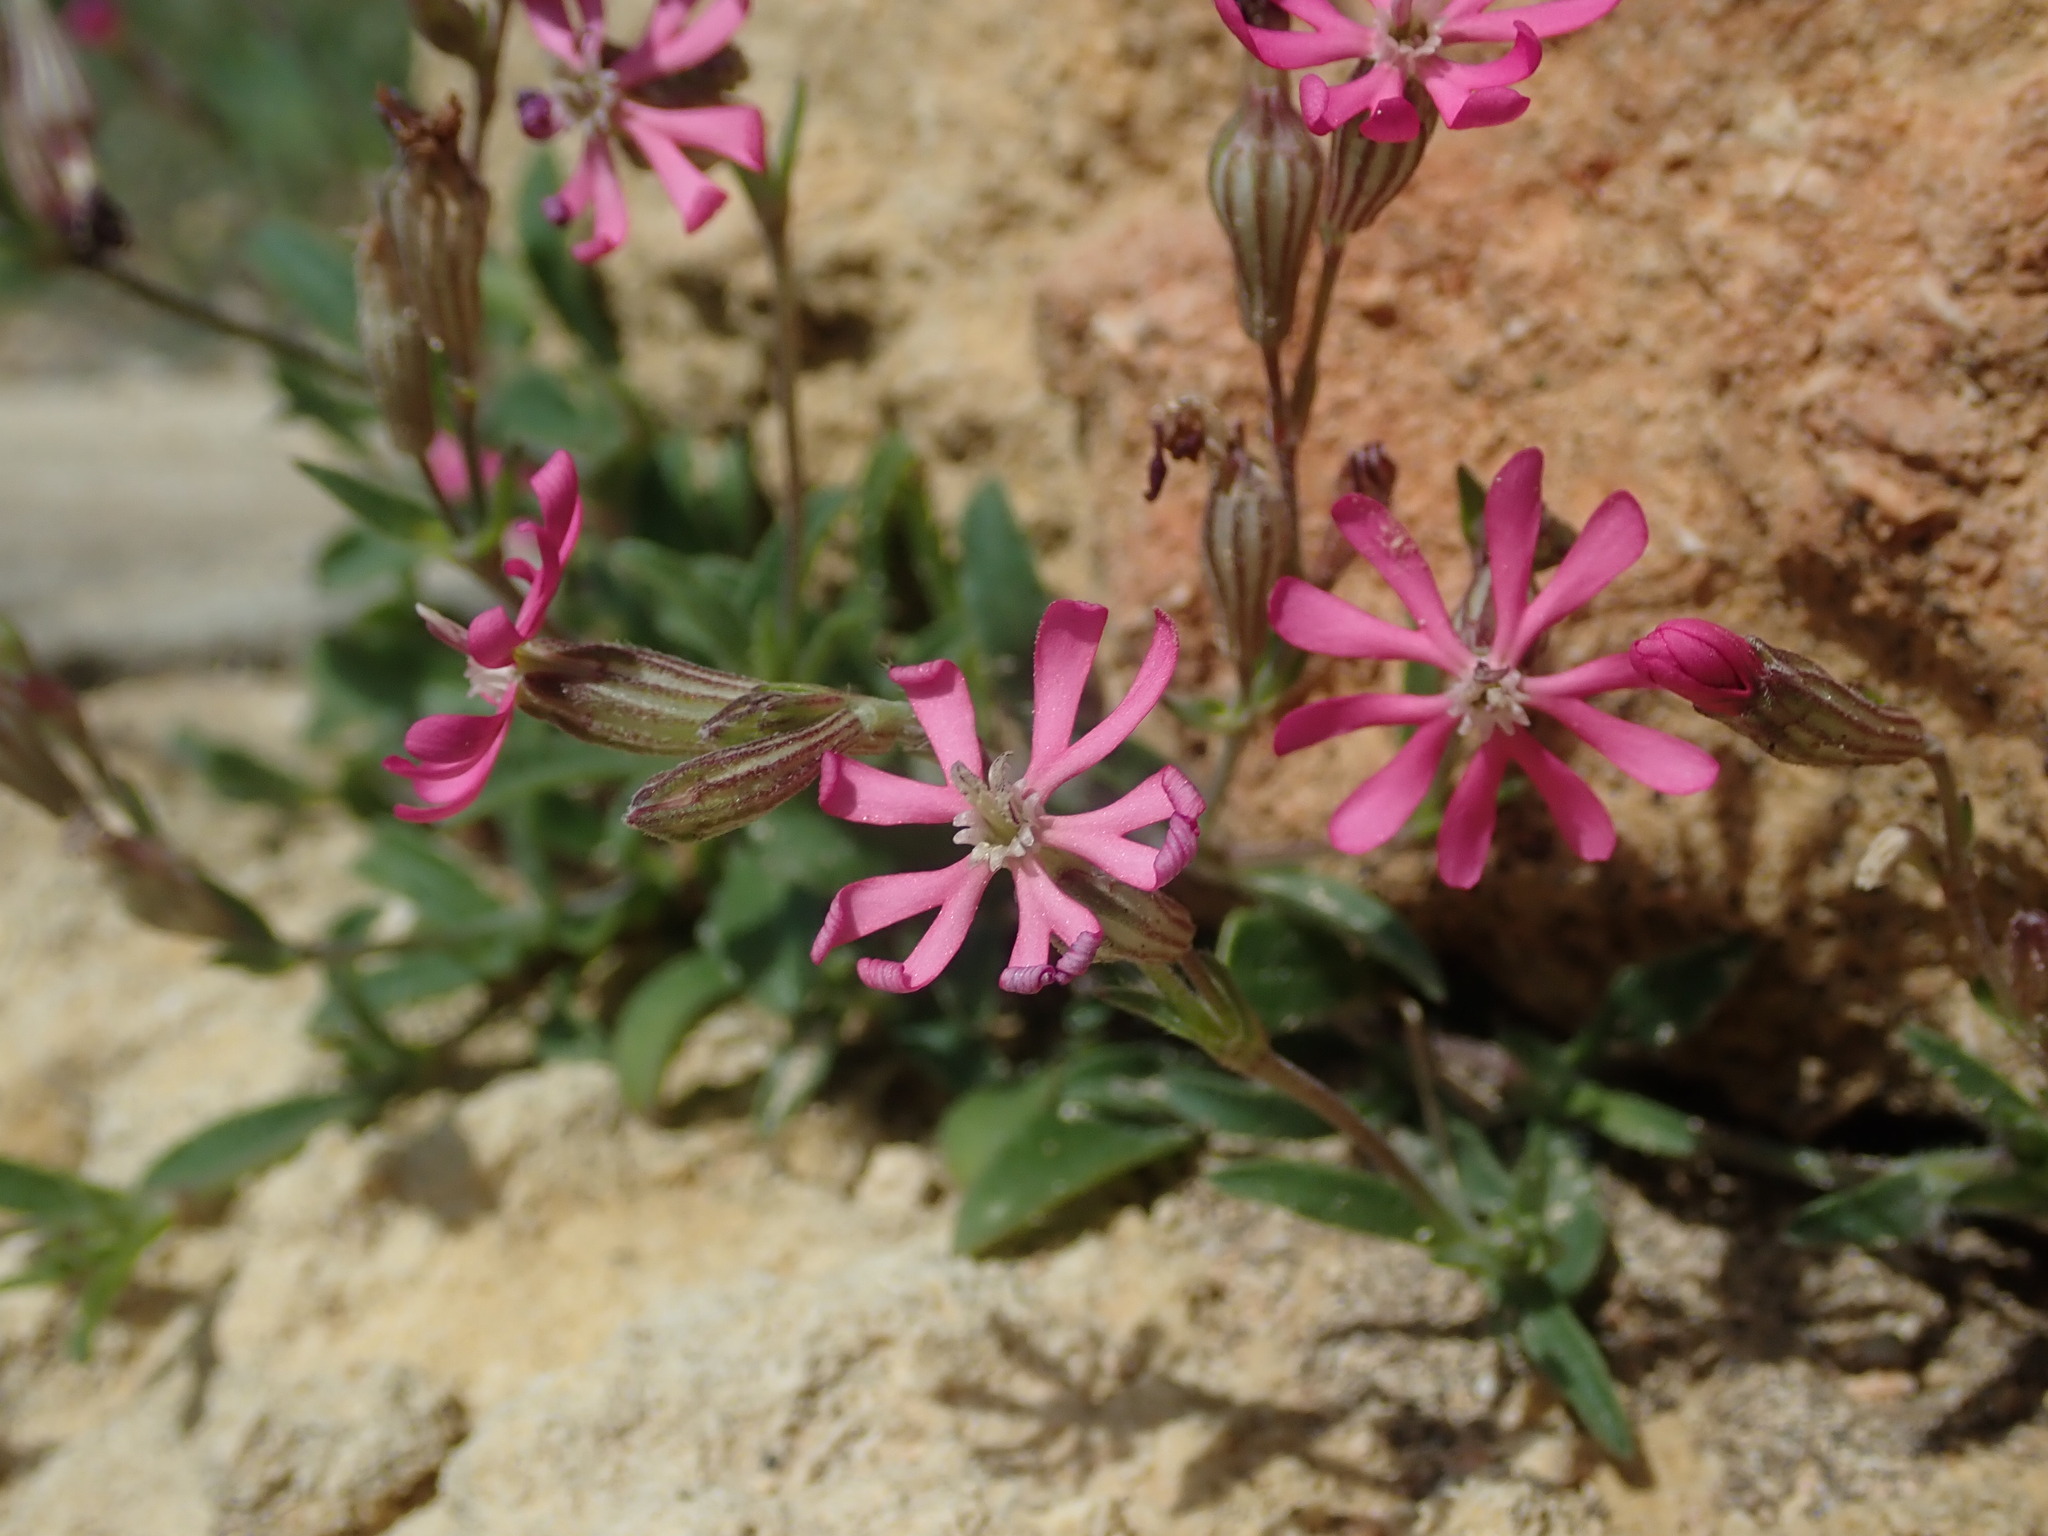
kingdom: Plantae
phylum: Tracheophyta
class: Magnoliopsida
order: Caryophyllales
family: Caryophyllaceae
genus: Silene
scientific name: Silene melitensis
